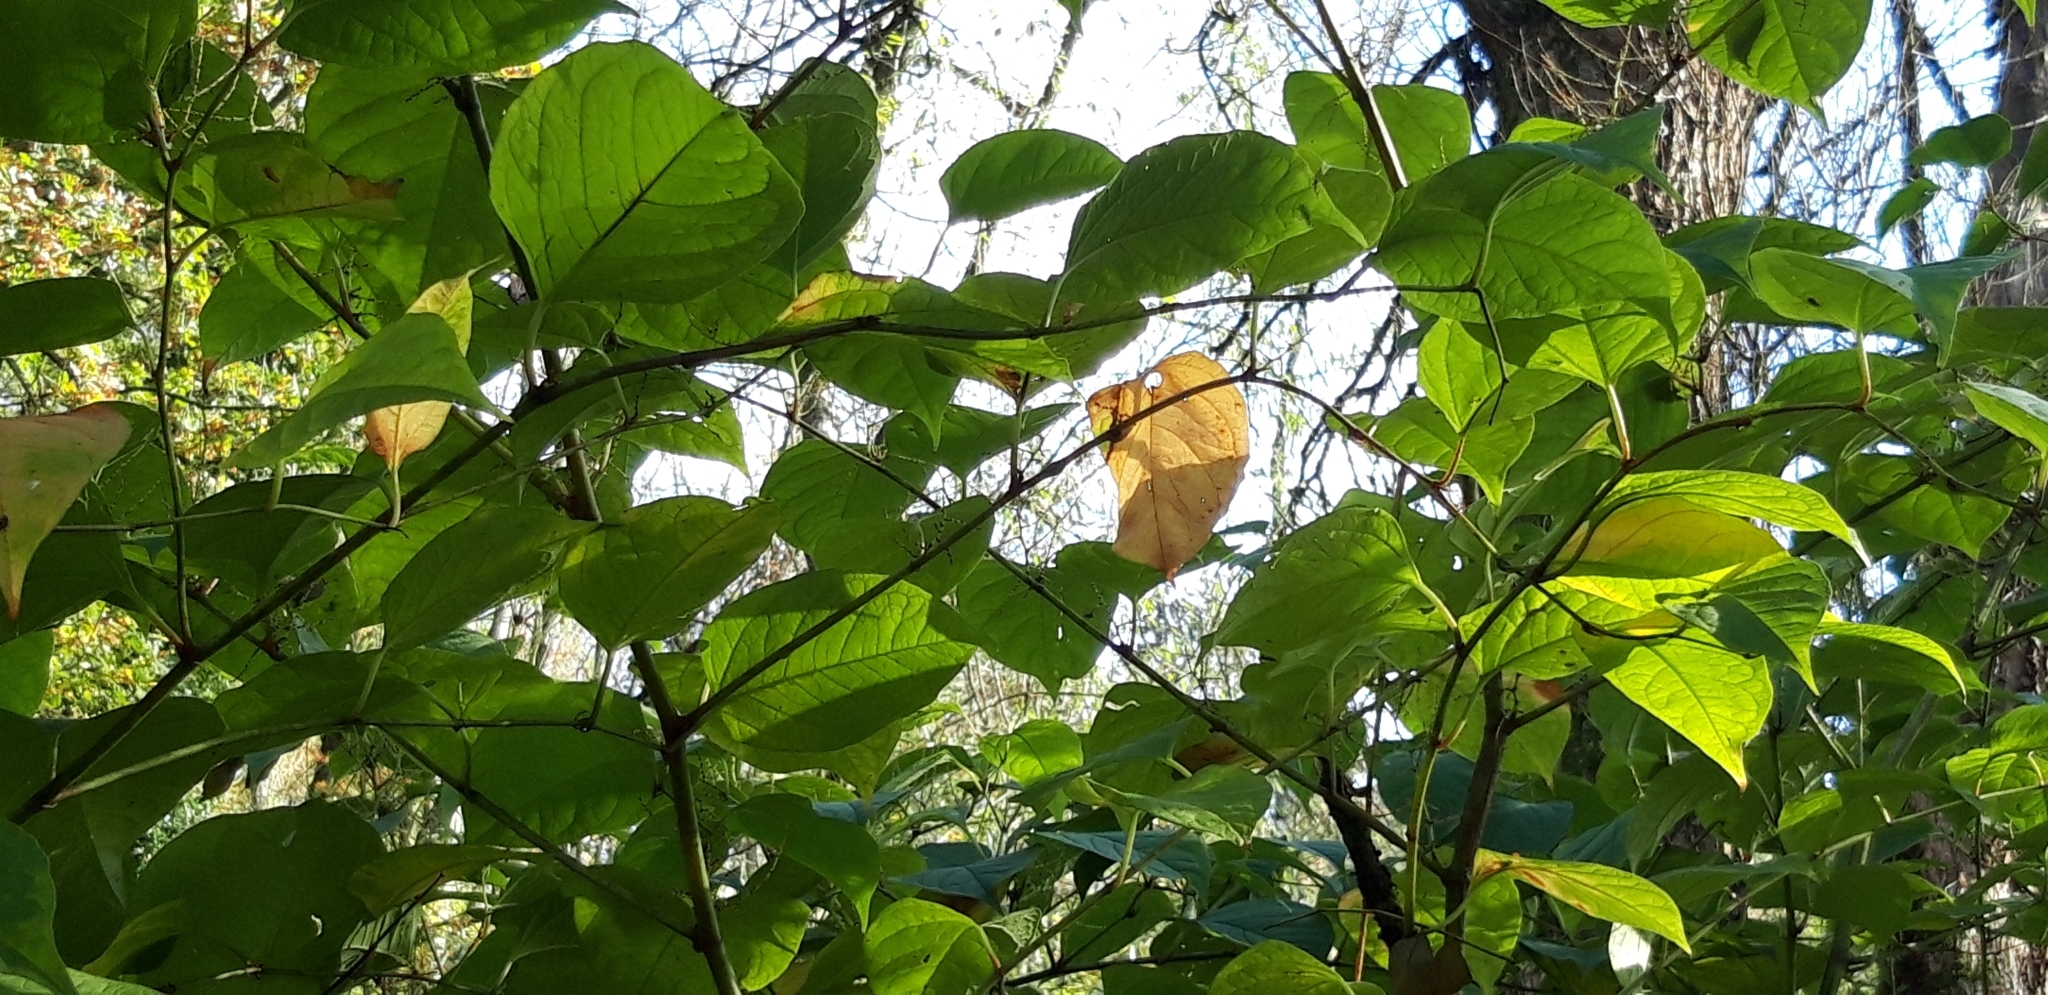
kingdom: Plantae
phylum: Tracheophyta
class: Magnoliopsida
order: Caryophyllales
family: Polygonaceae
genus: Reynoutria
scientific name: Reynoutria japonica
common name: Japanese knotweed
